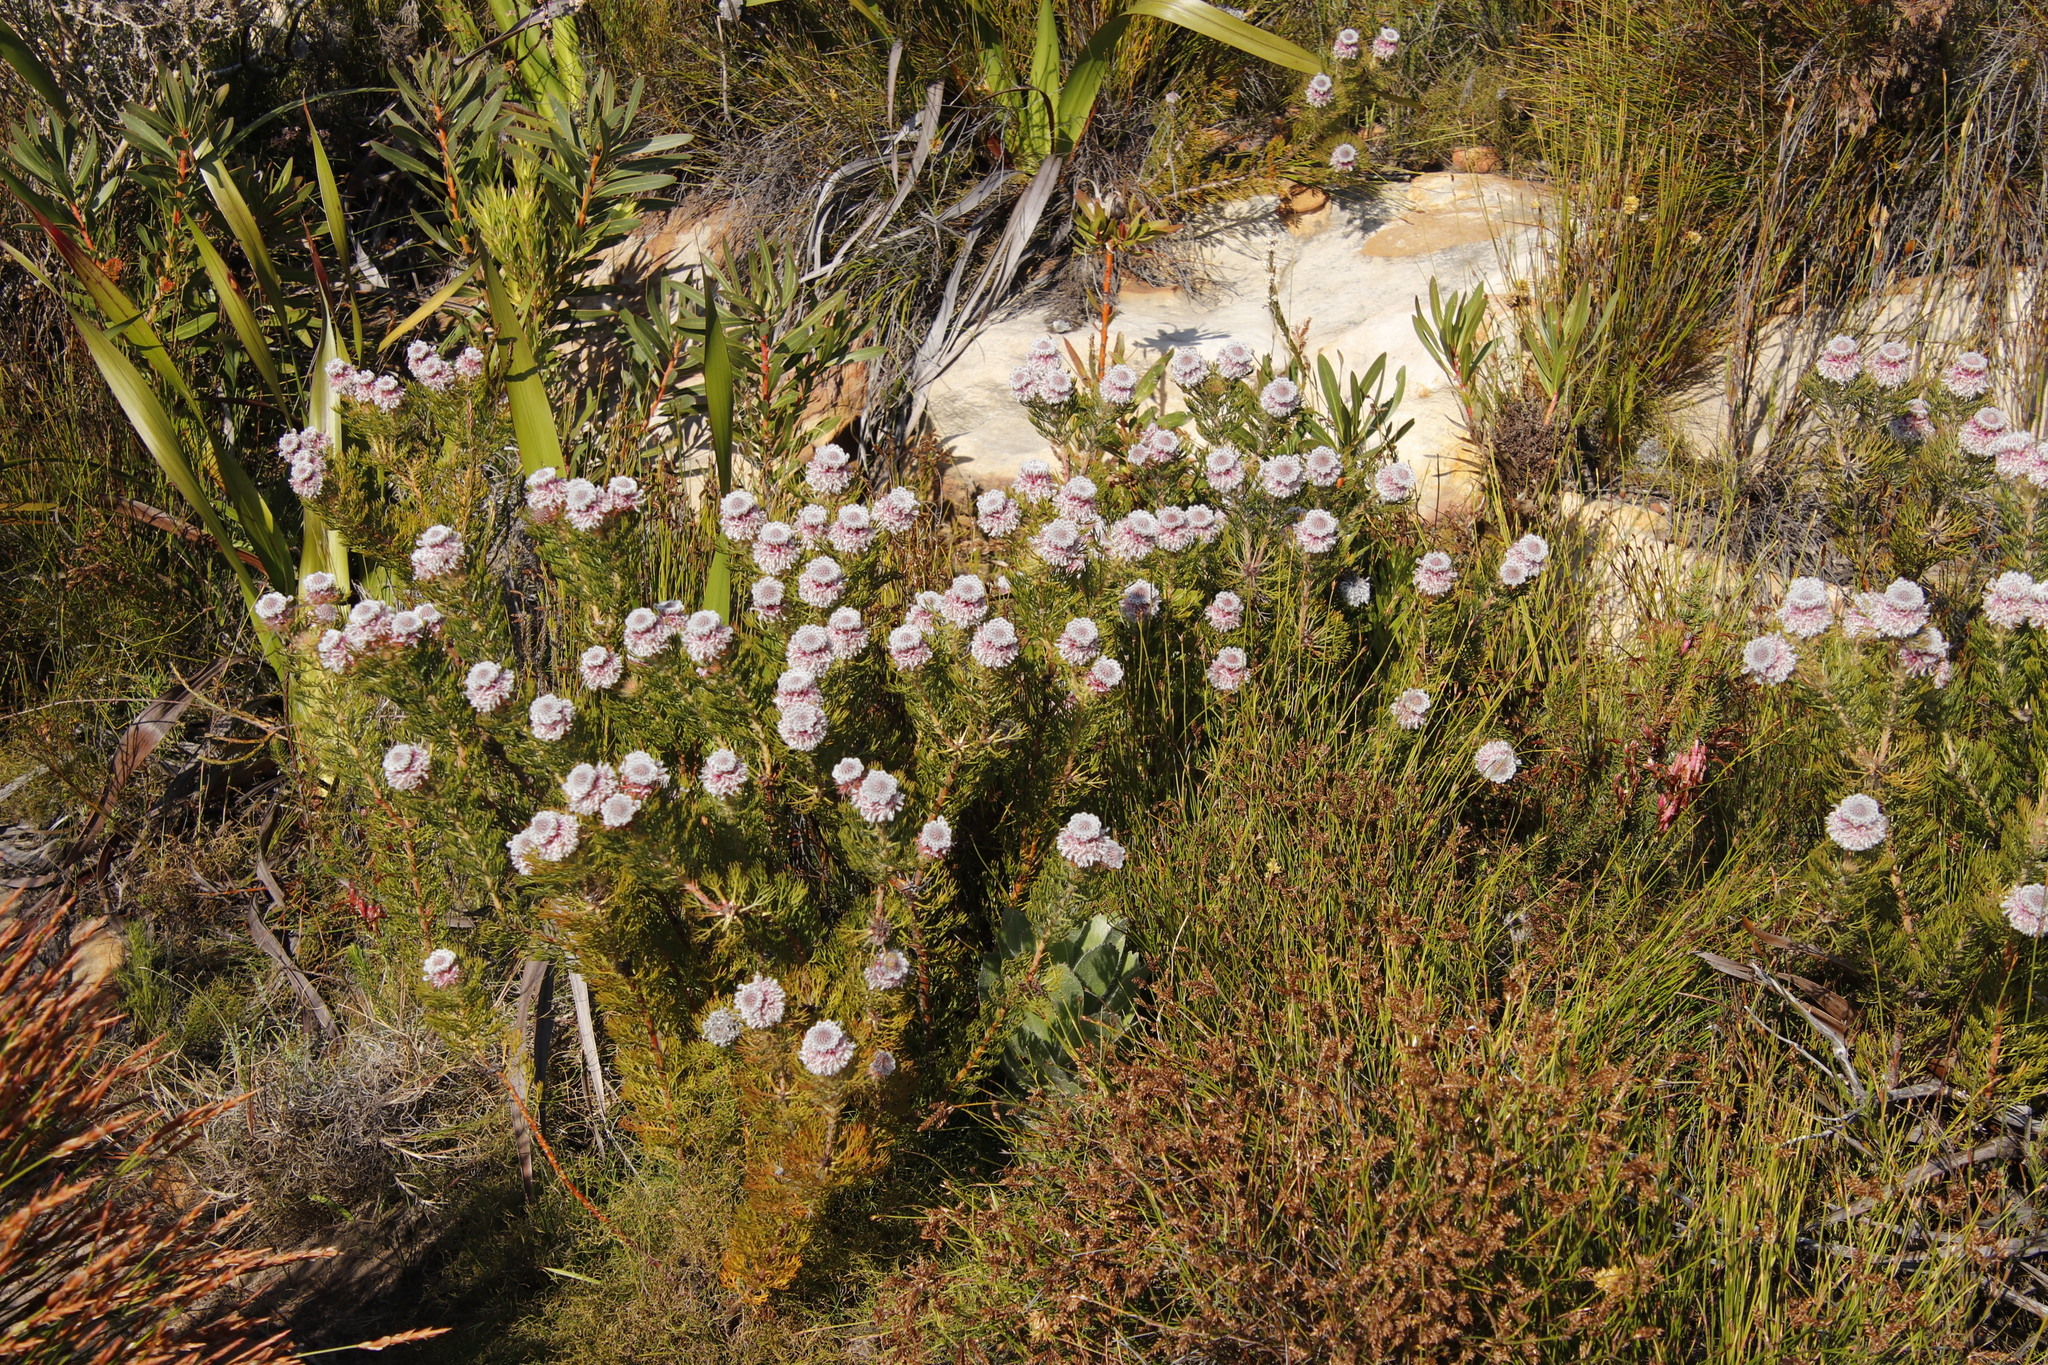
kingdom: Plantae
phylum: Tracheophyta
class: Magnoliopsida
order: Proteales
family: Proteaceae
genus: Serruria
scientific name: Serruria hirsuta
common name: Swartkops spiderhead
